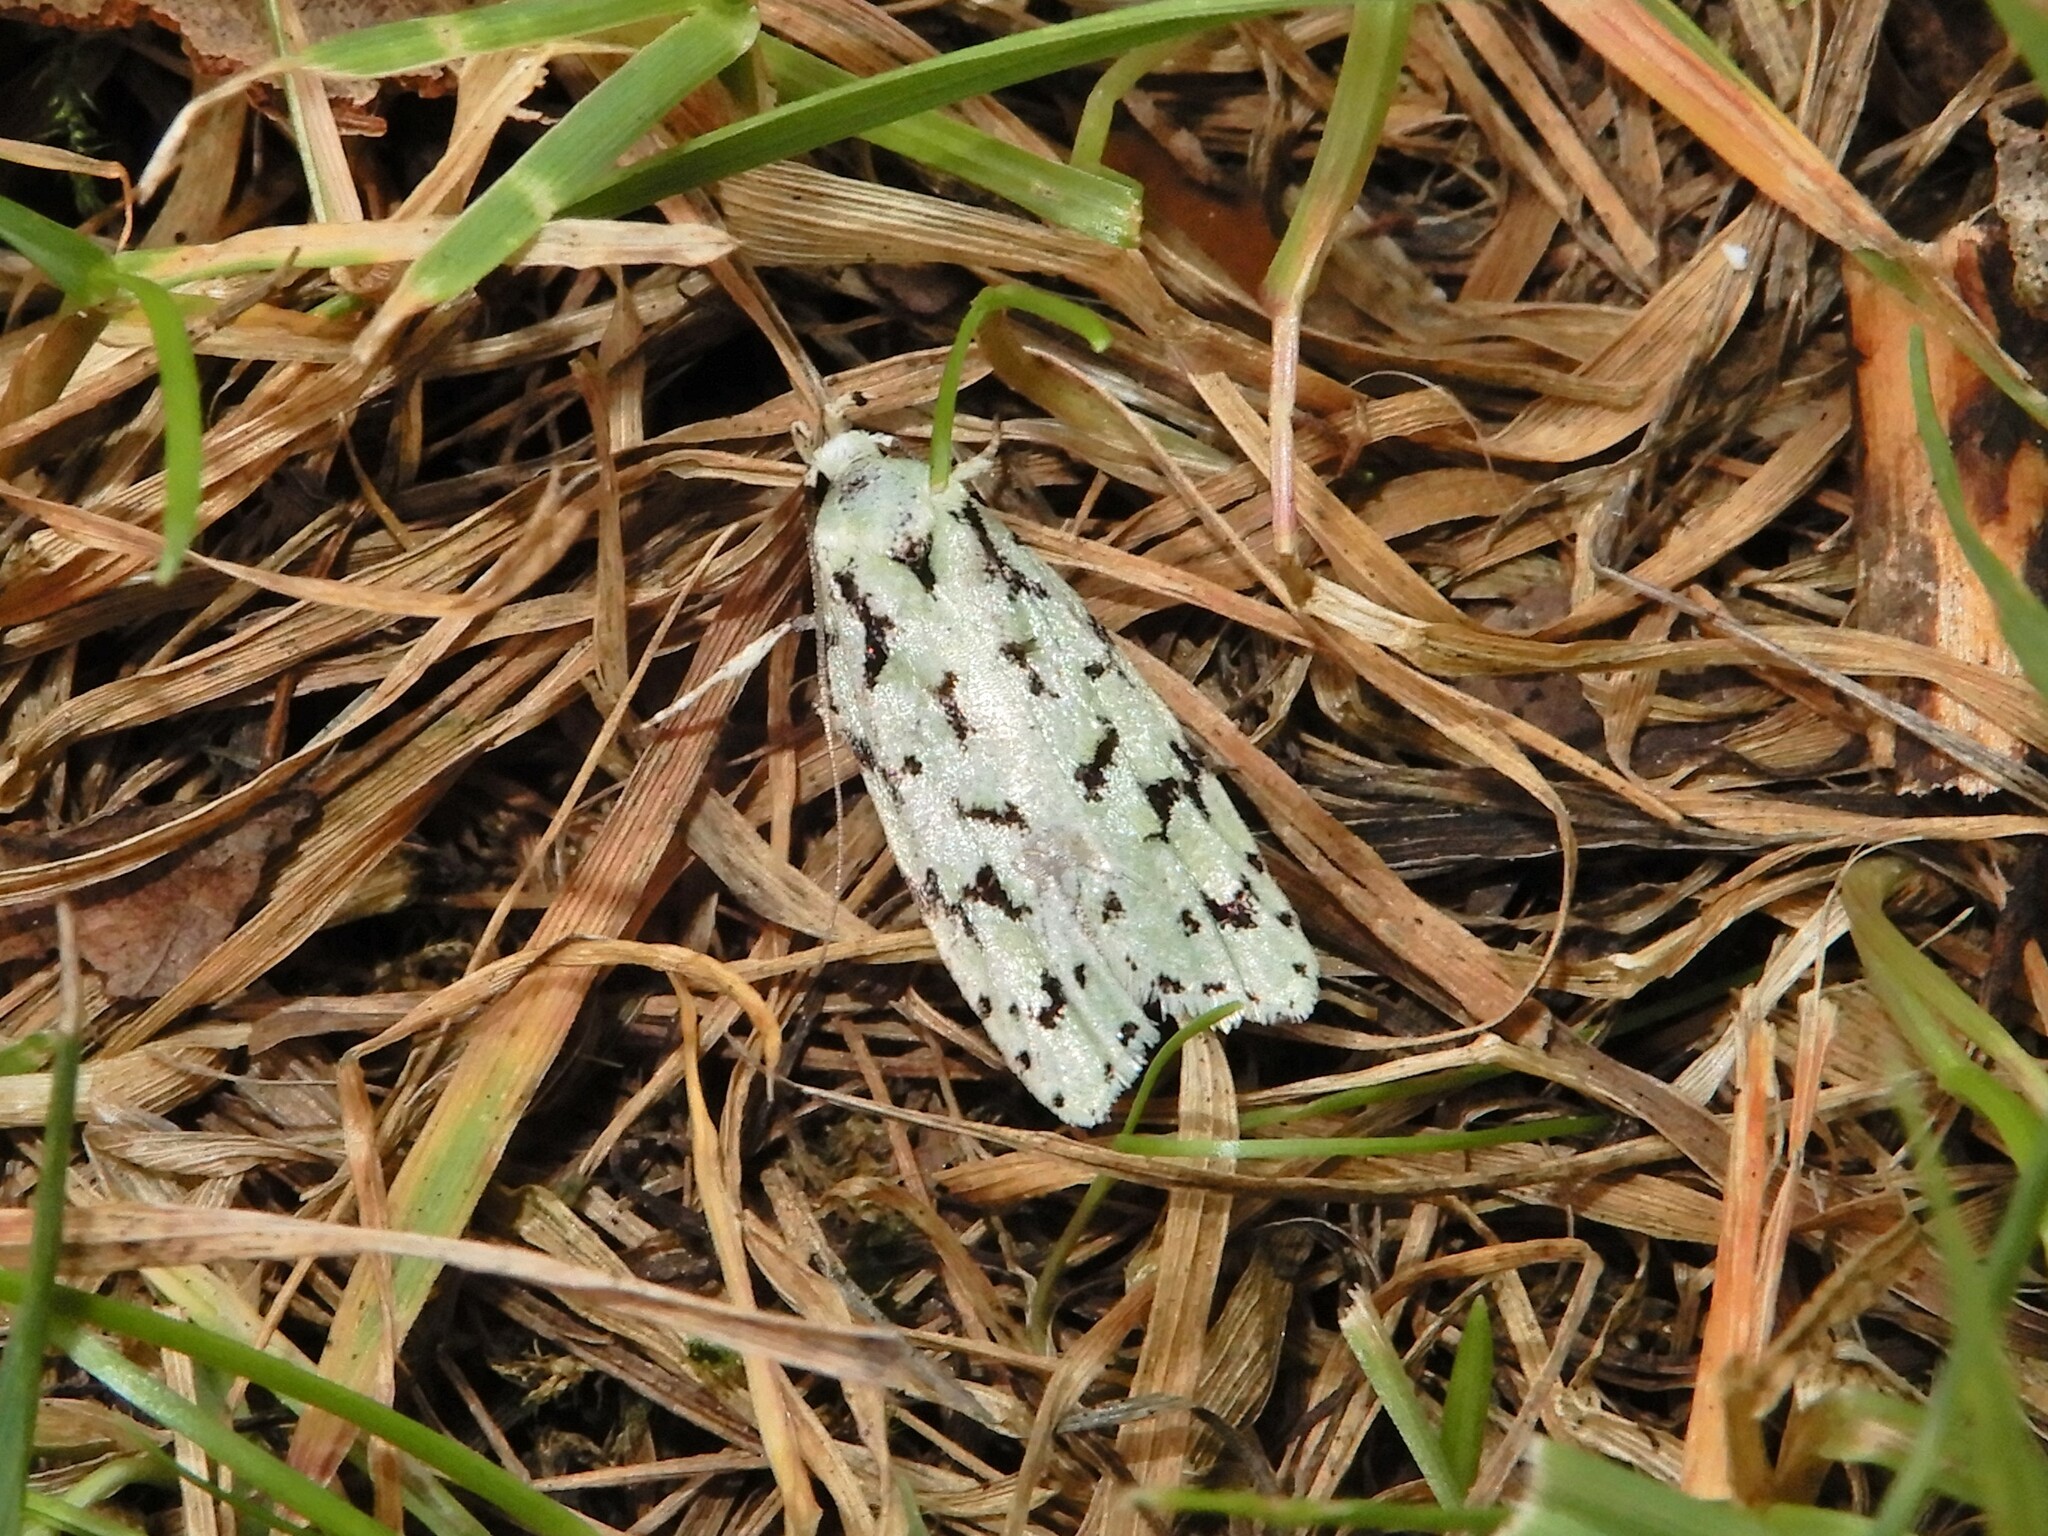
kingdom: Animalia
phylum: Arthropoda
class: Insecta
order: Lepidoptera
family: Oecophoridae
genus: Izatha
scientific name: Izatha peroneanella
